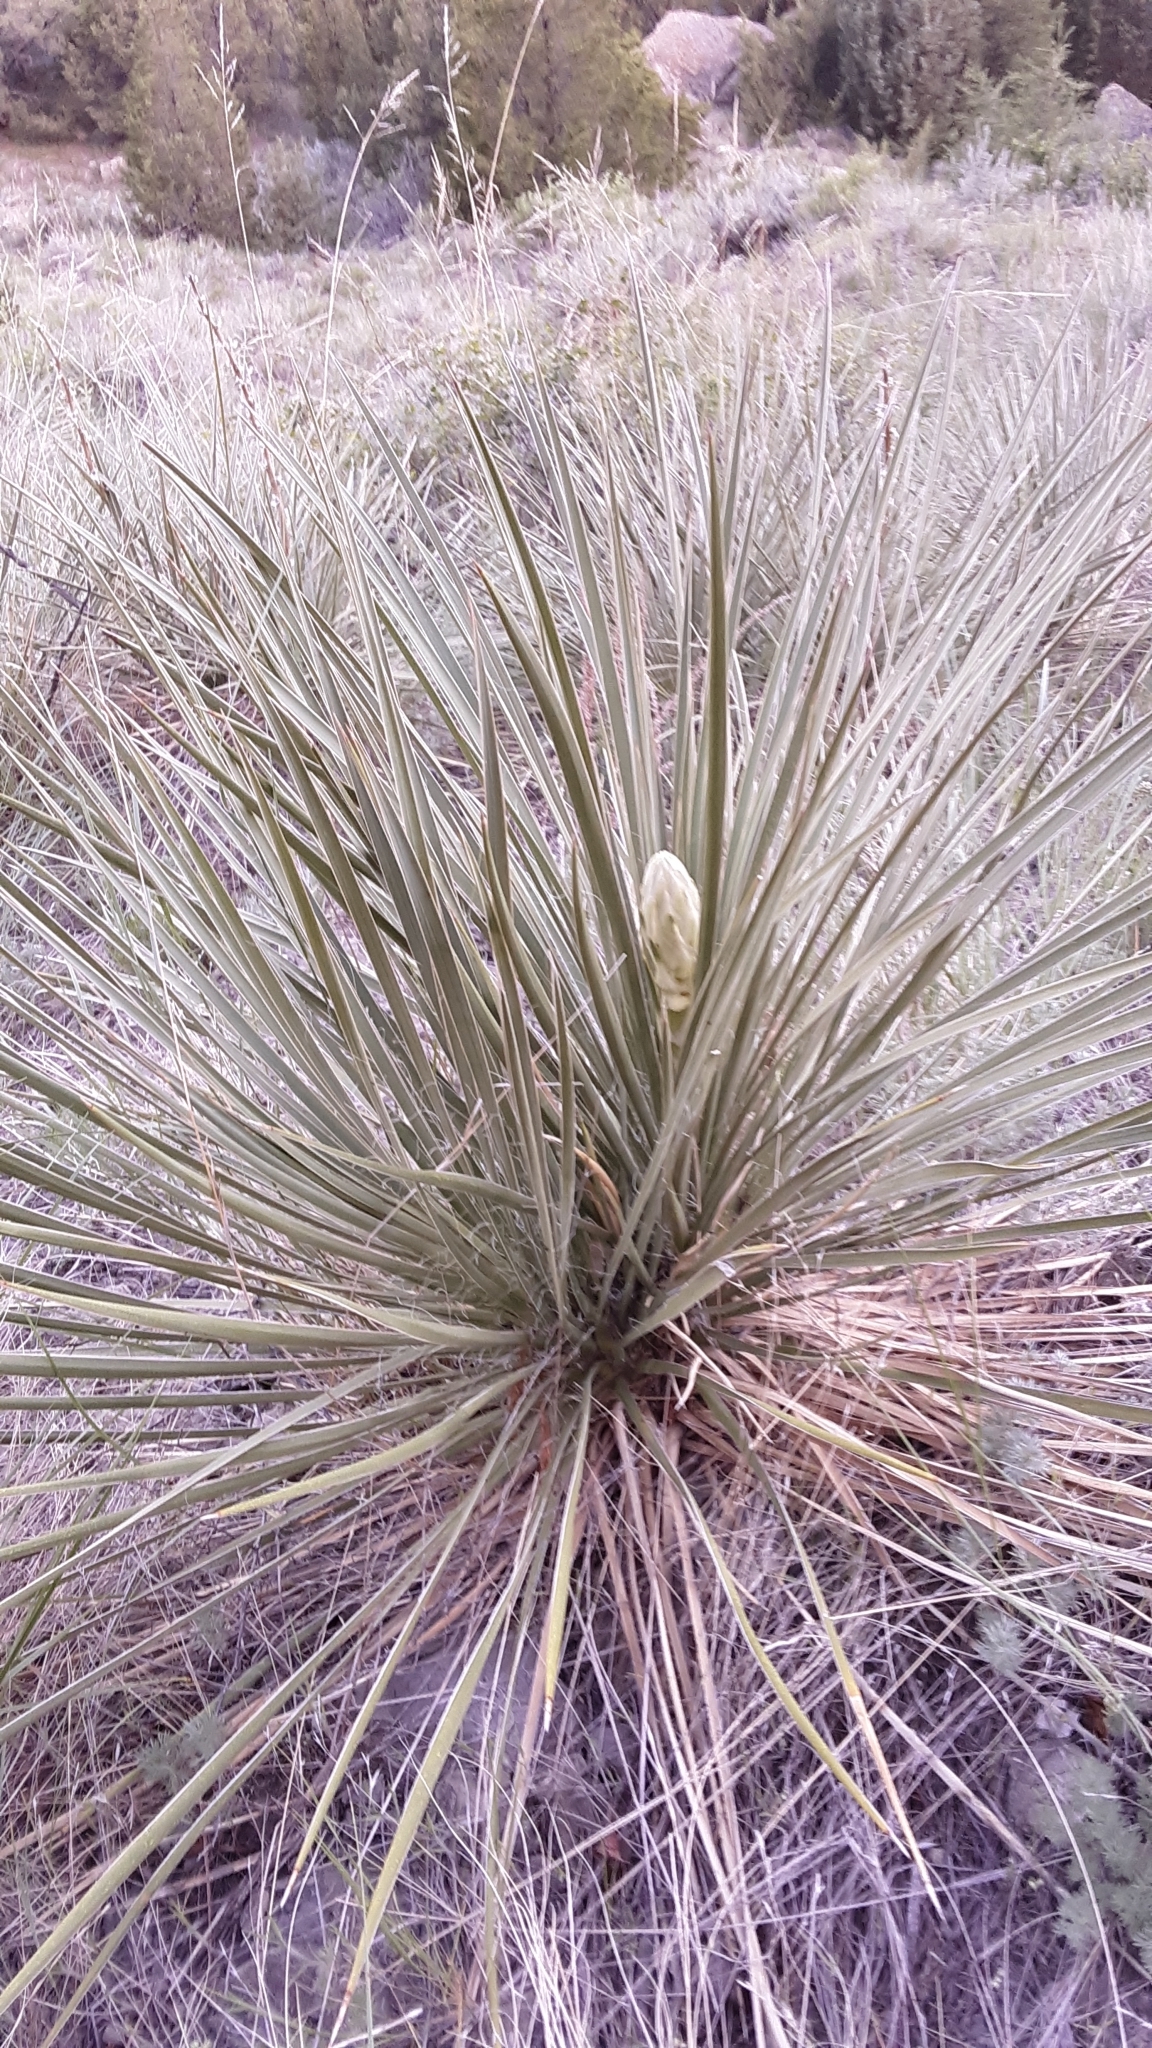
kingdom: Plantae
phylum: Tracheophyta
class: Liliopsida
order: Asparagales
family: Asparagaceae
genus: Yucca
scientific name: Yucca glauca
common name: Great plains yucca
